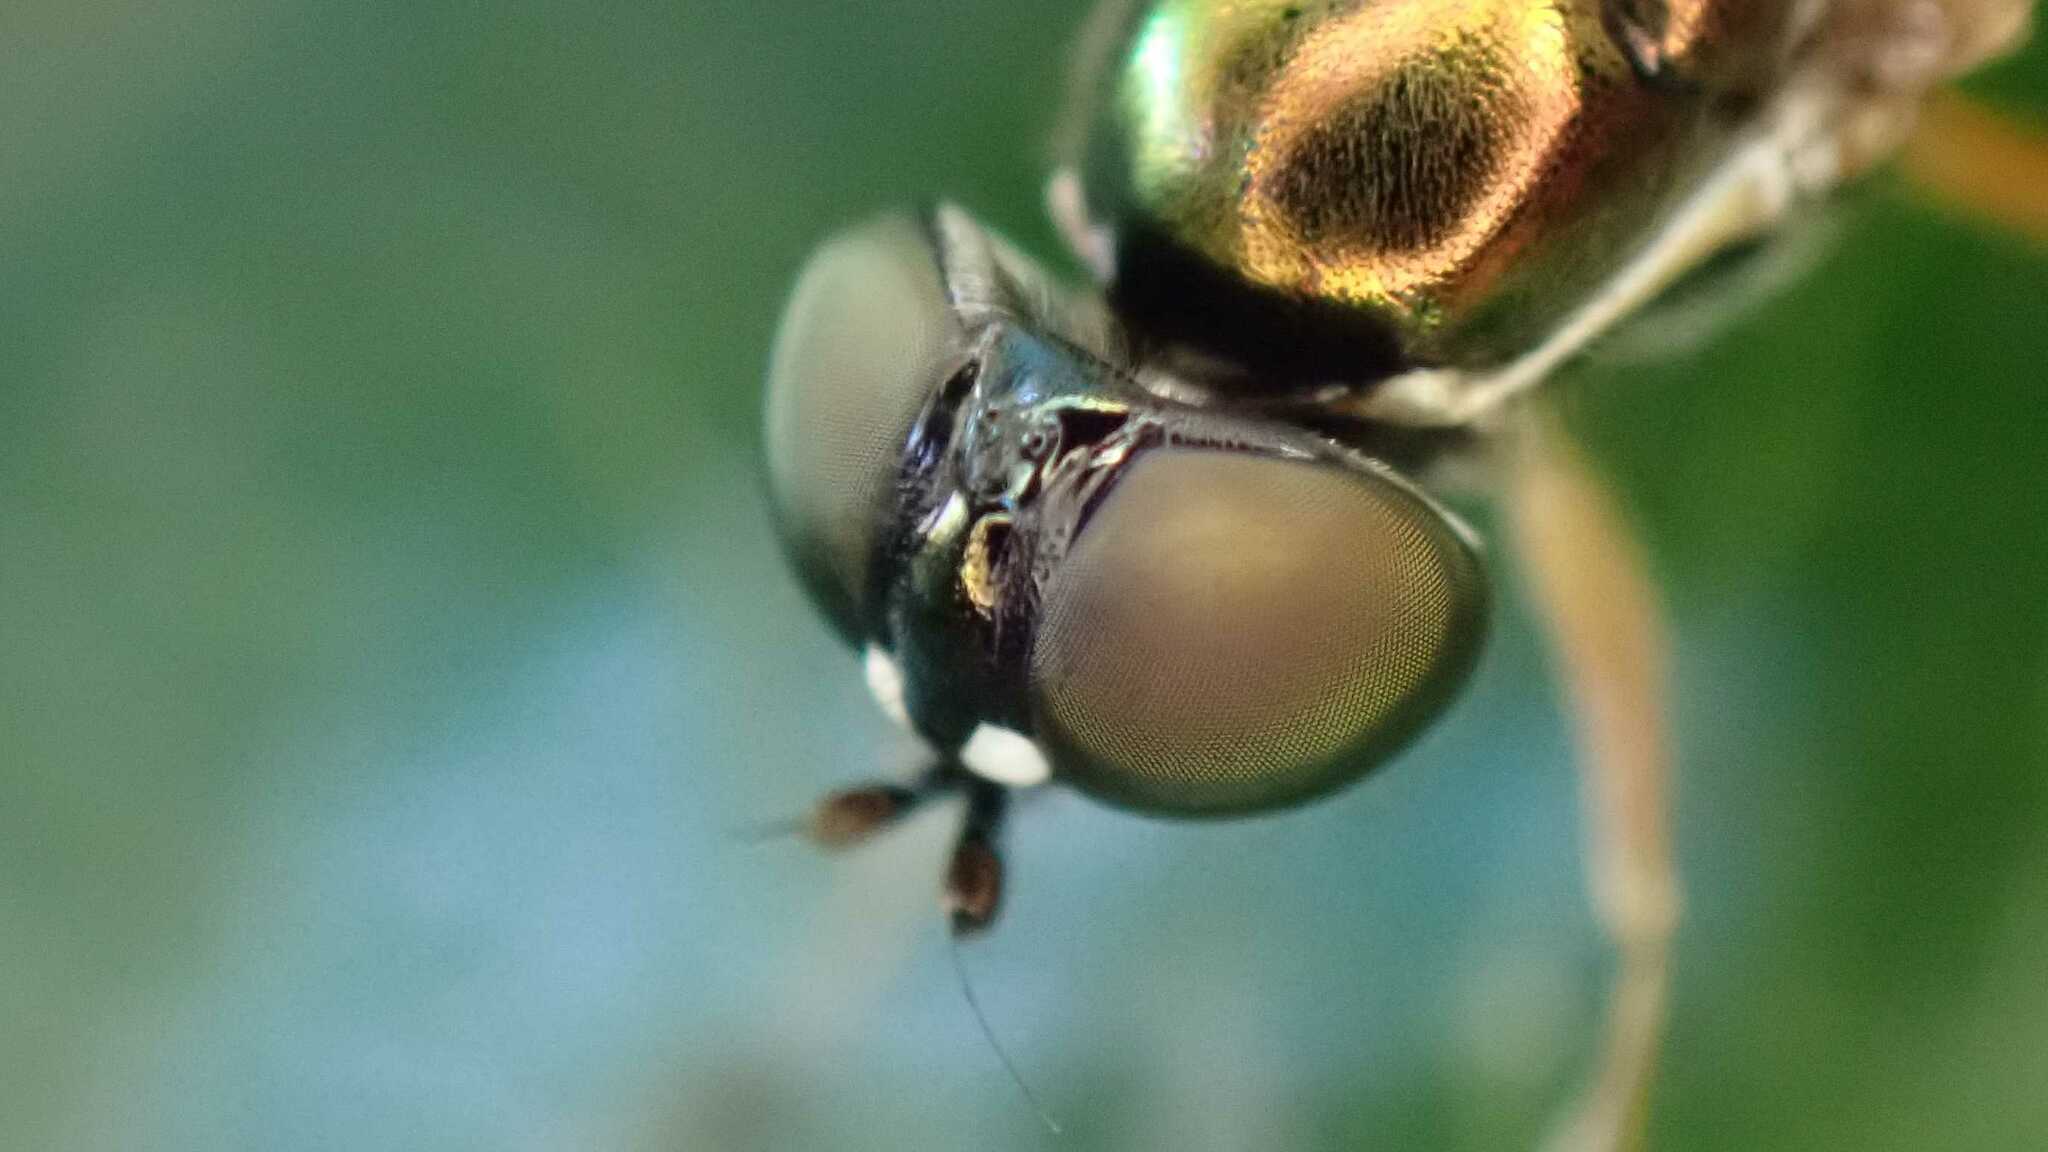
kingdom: Animalia
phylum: Arthropoda
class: Insecta
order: Diptera
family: Stratiomyidae
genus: Sargus
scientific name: Sargus bipunctatus
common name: Twin-spot centurion
